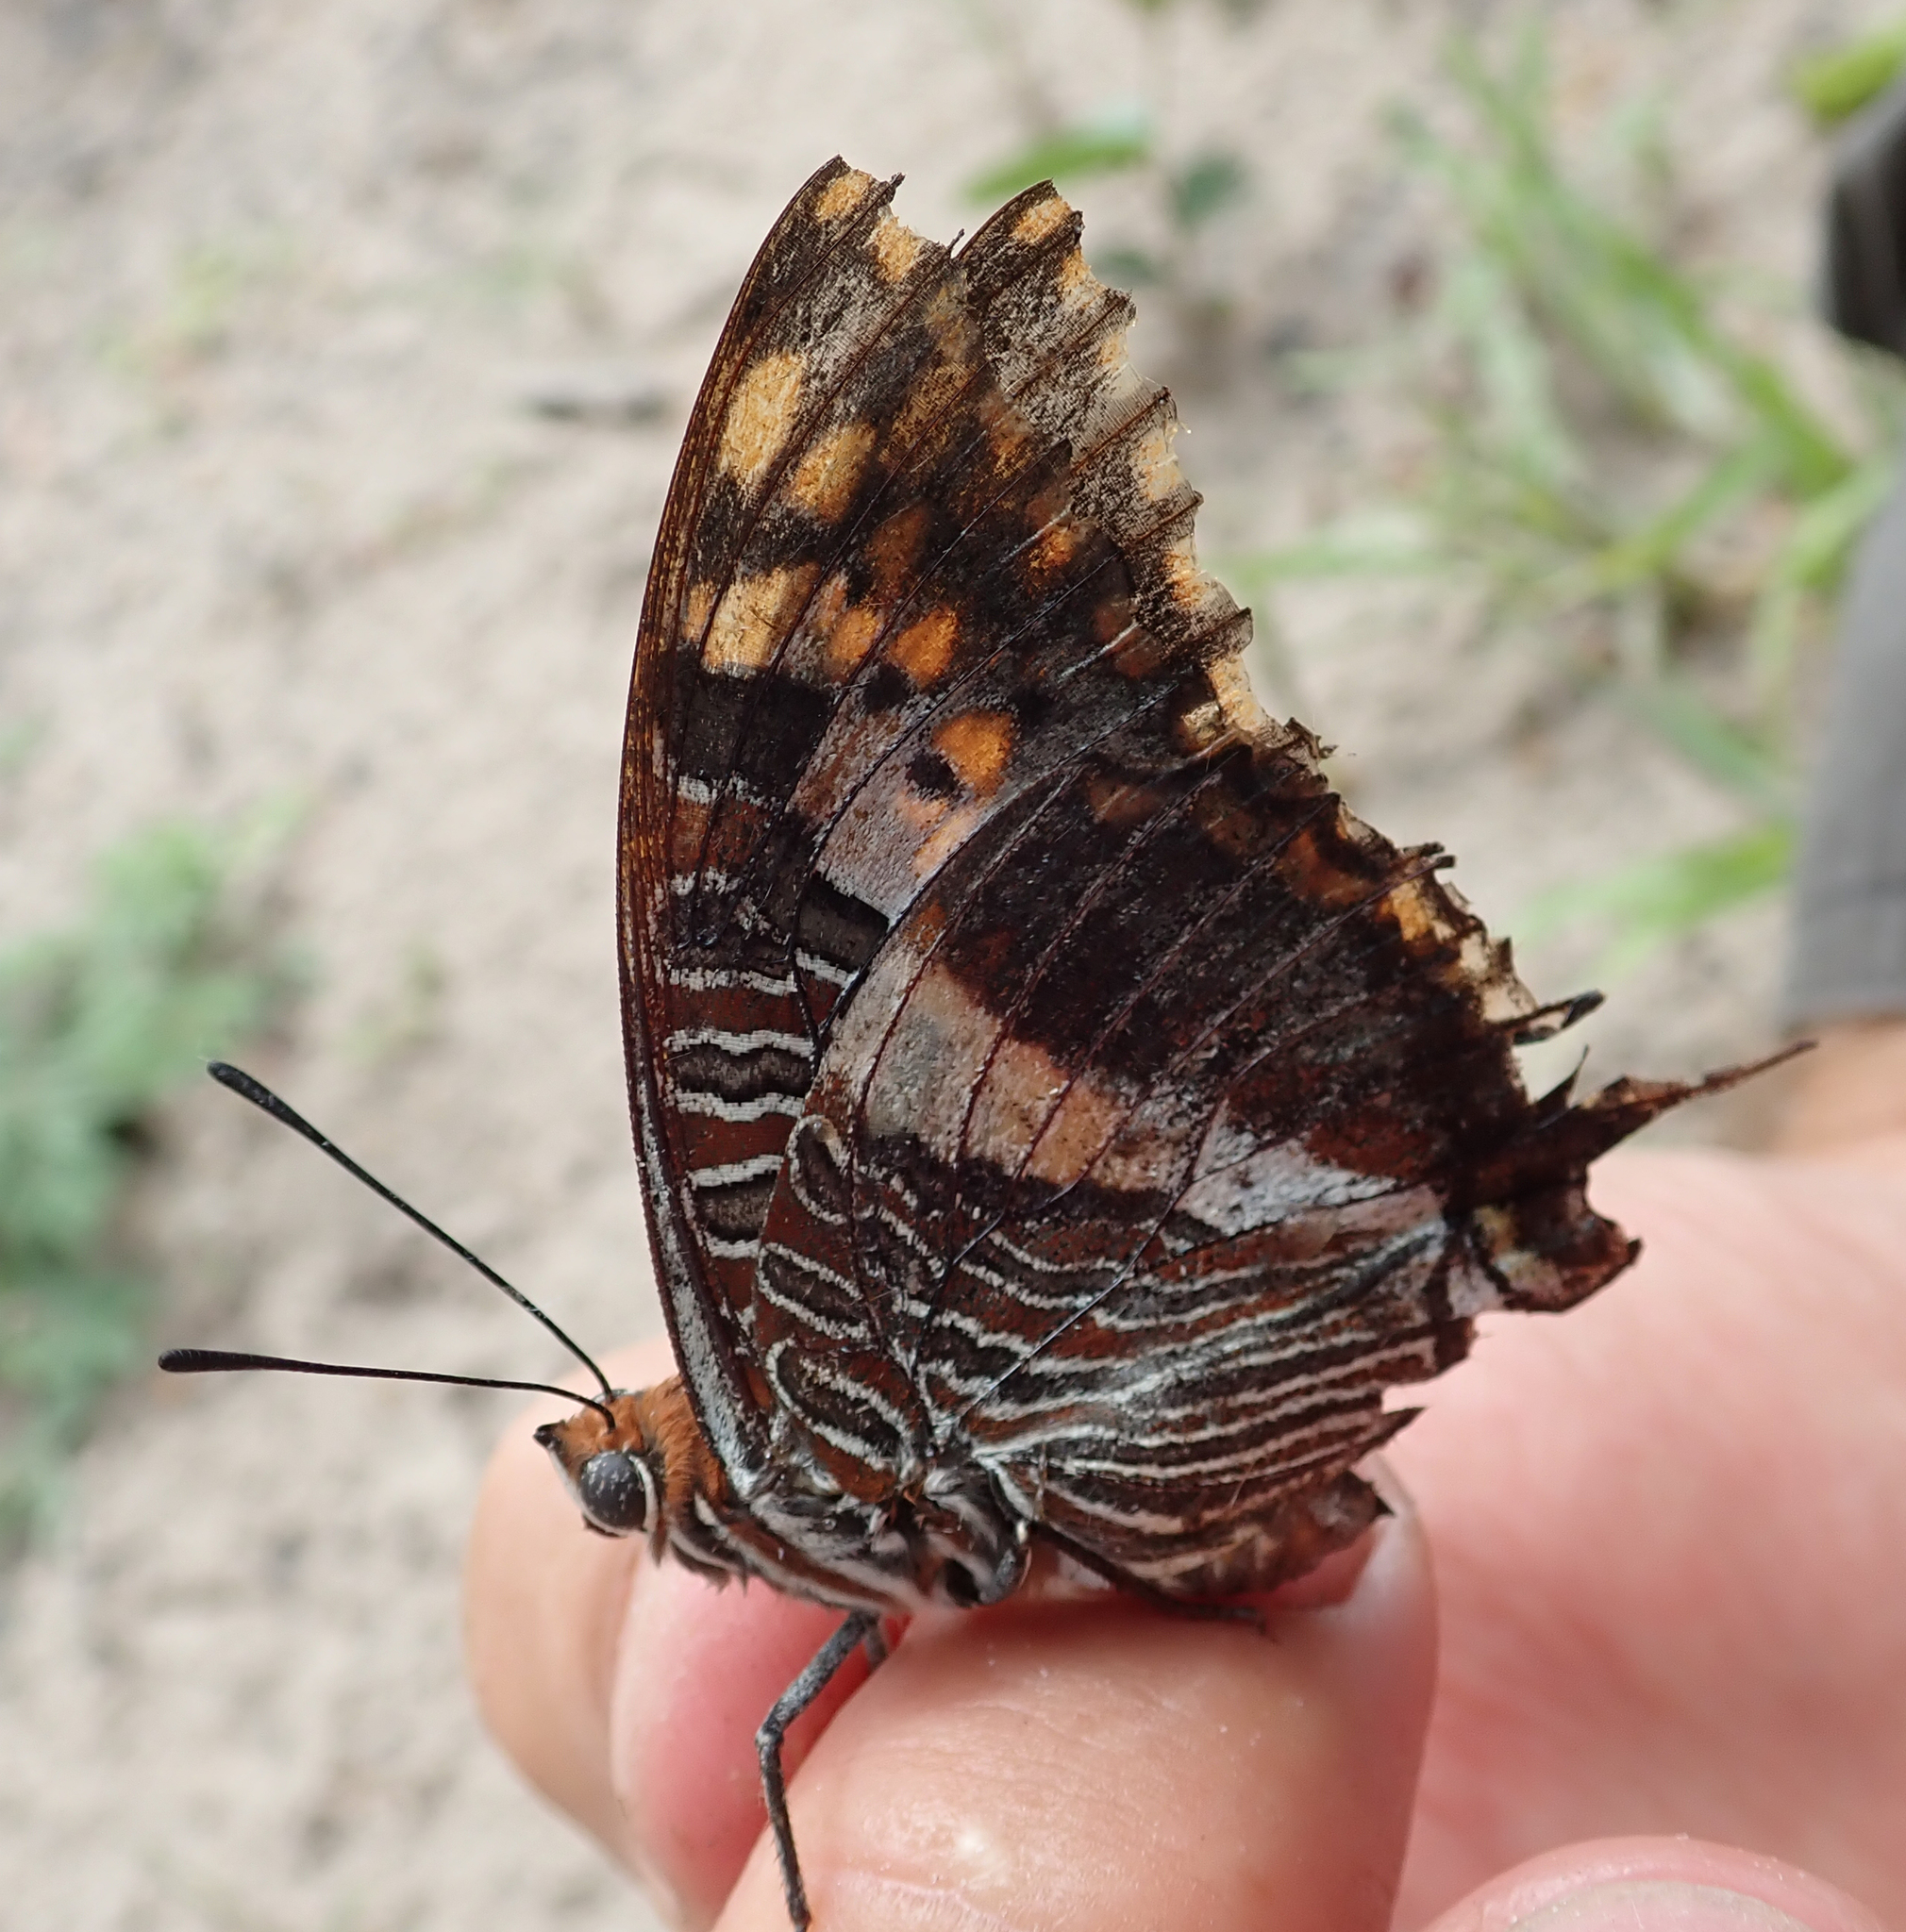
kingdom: Animalia
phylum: Arthropoda
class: Insecta
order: Lepidoptera
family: Nymphalidae
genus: Charaxes
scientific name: Charaxes jasius
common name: Two tailed pasha
